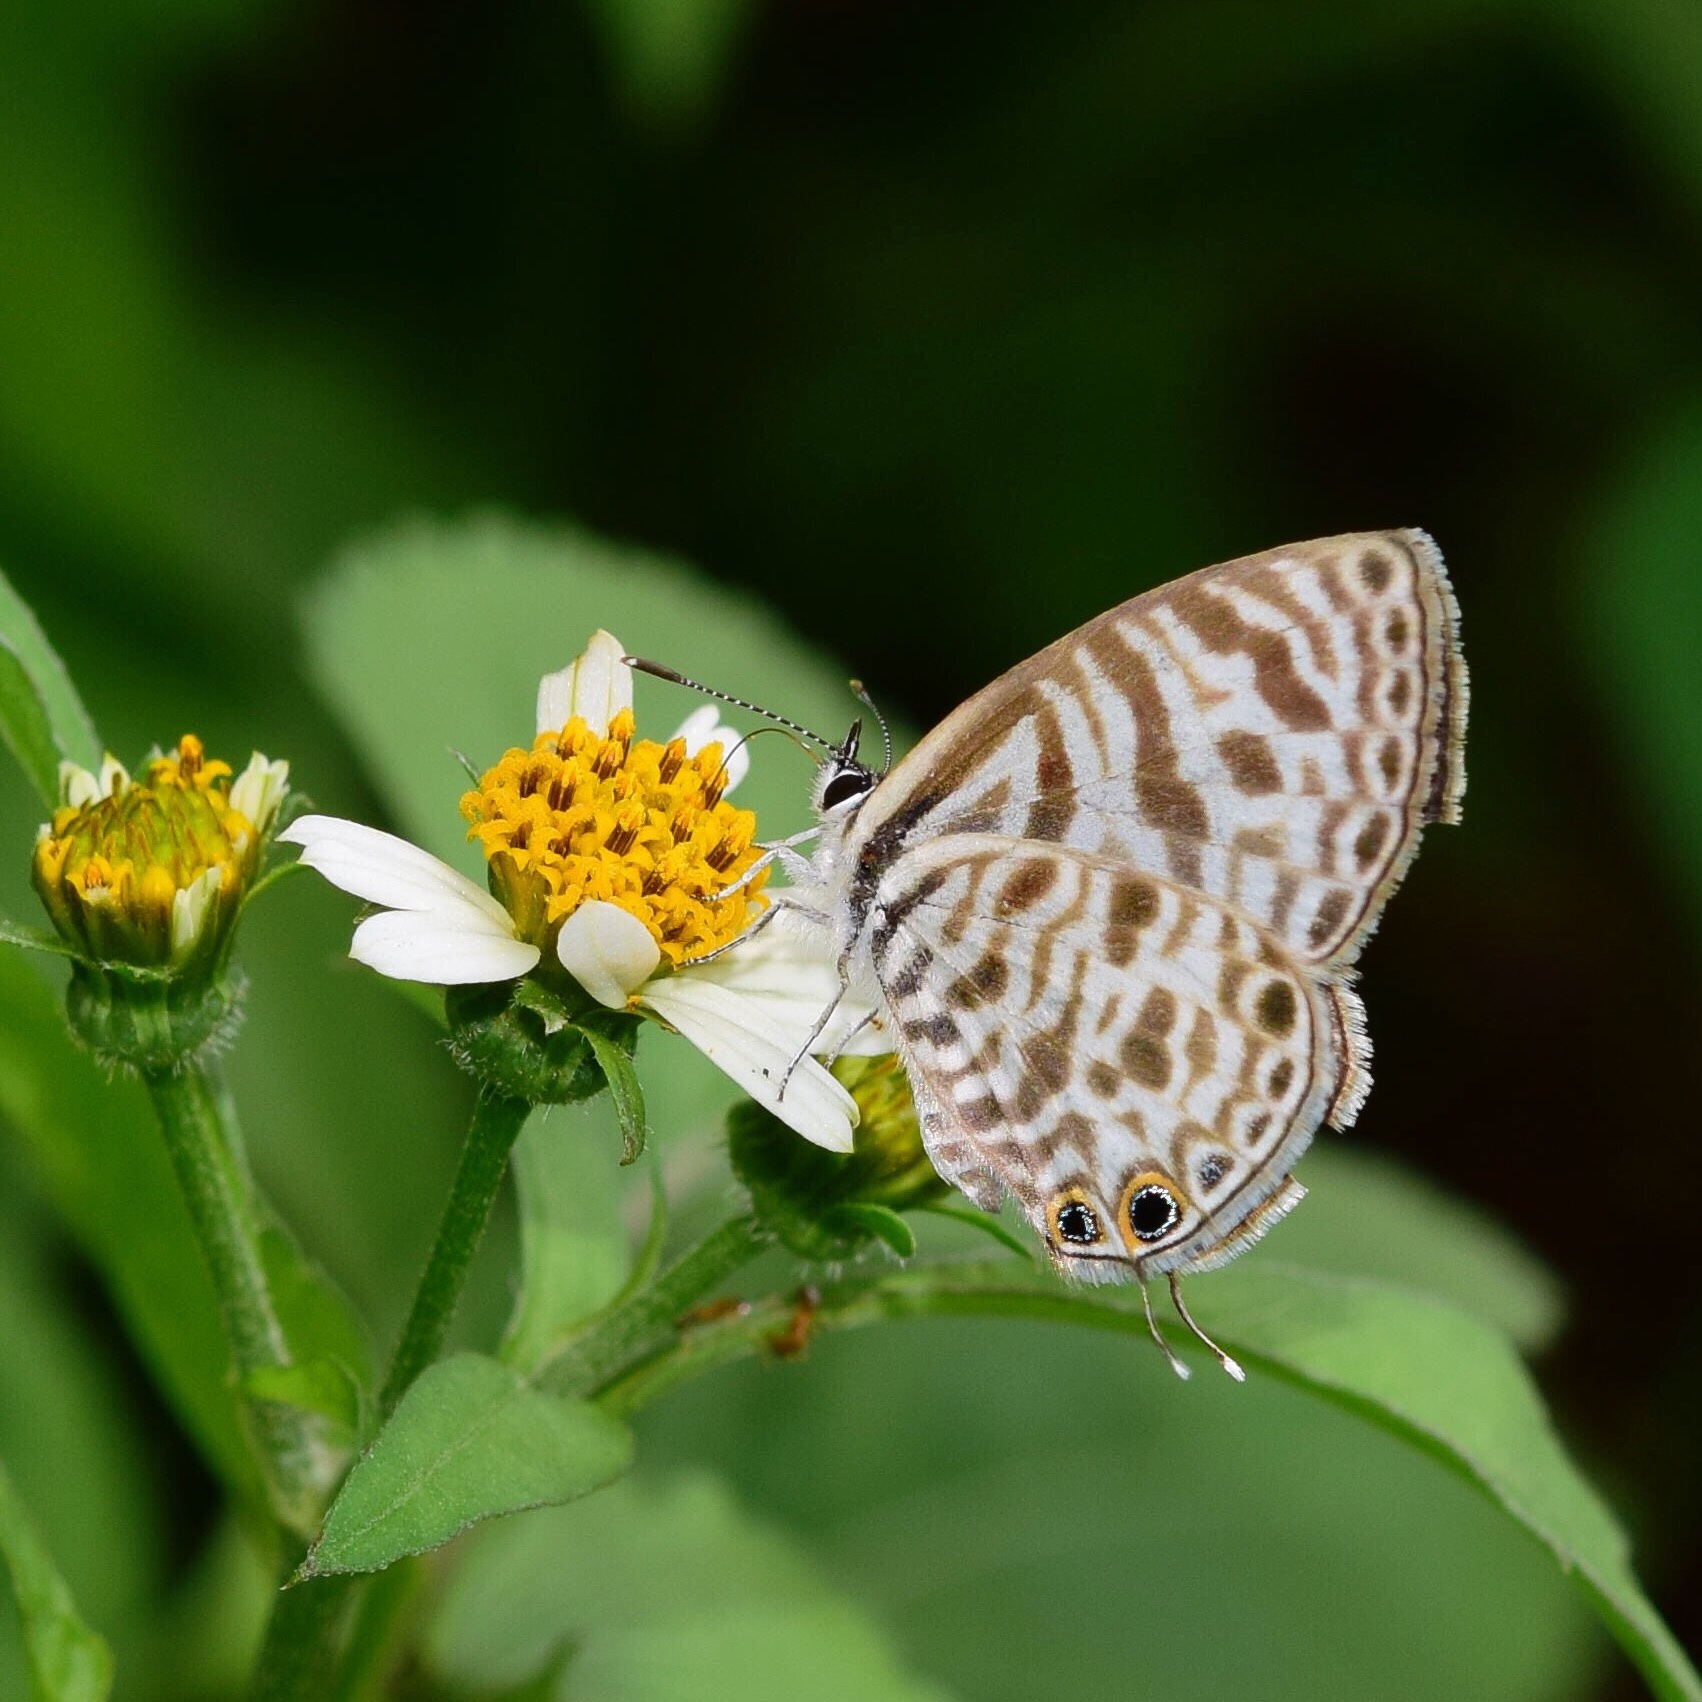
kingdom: Animalia
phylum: Arthropoda
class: Insecta
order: Lepidoptera
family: Lycaenidae
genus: Leptotes
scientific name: Leptotes
